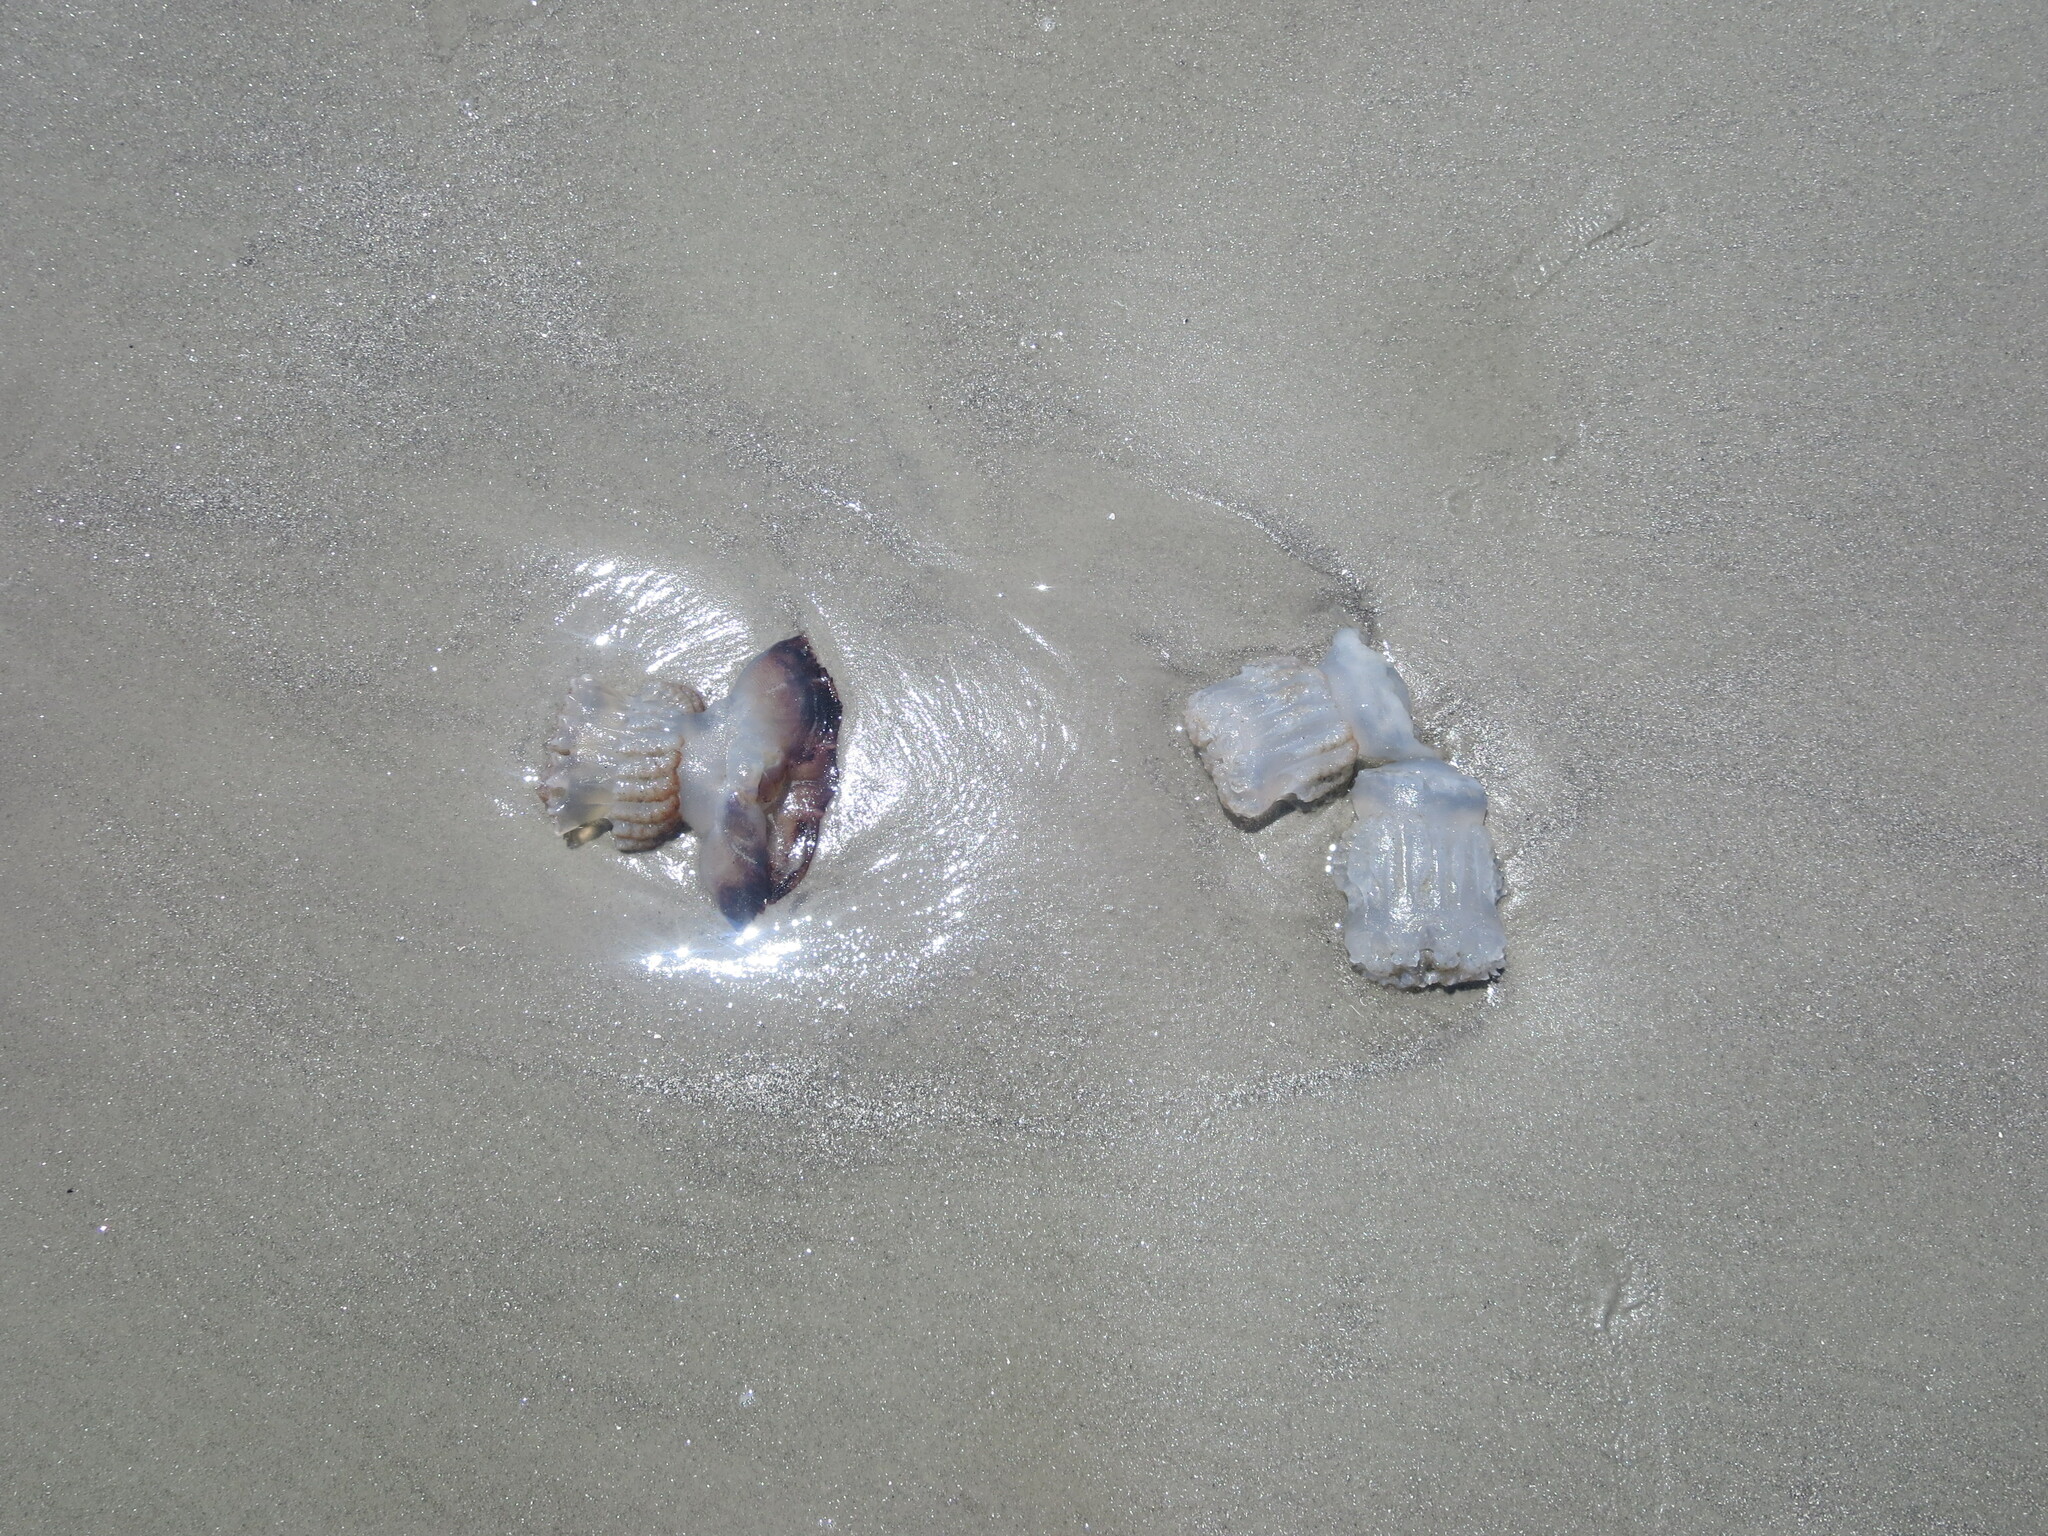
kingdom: Animalia
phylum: Cnidaria
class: Scyphozoa
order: Rhizostomeae
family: Stomolophidae
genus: Stomolophus
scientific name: Stomolophus meleagris
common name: Cabbagehead
